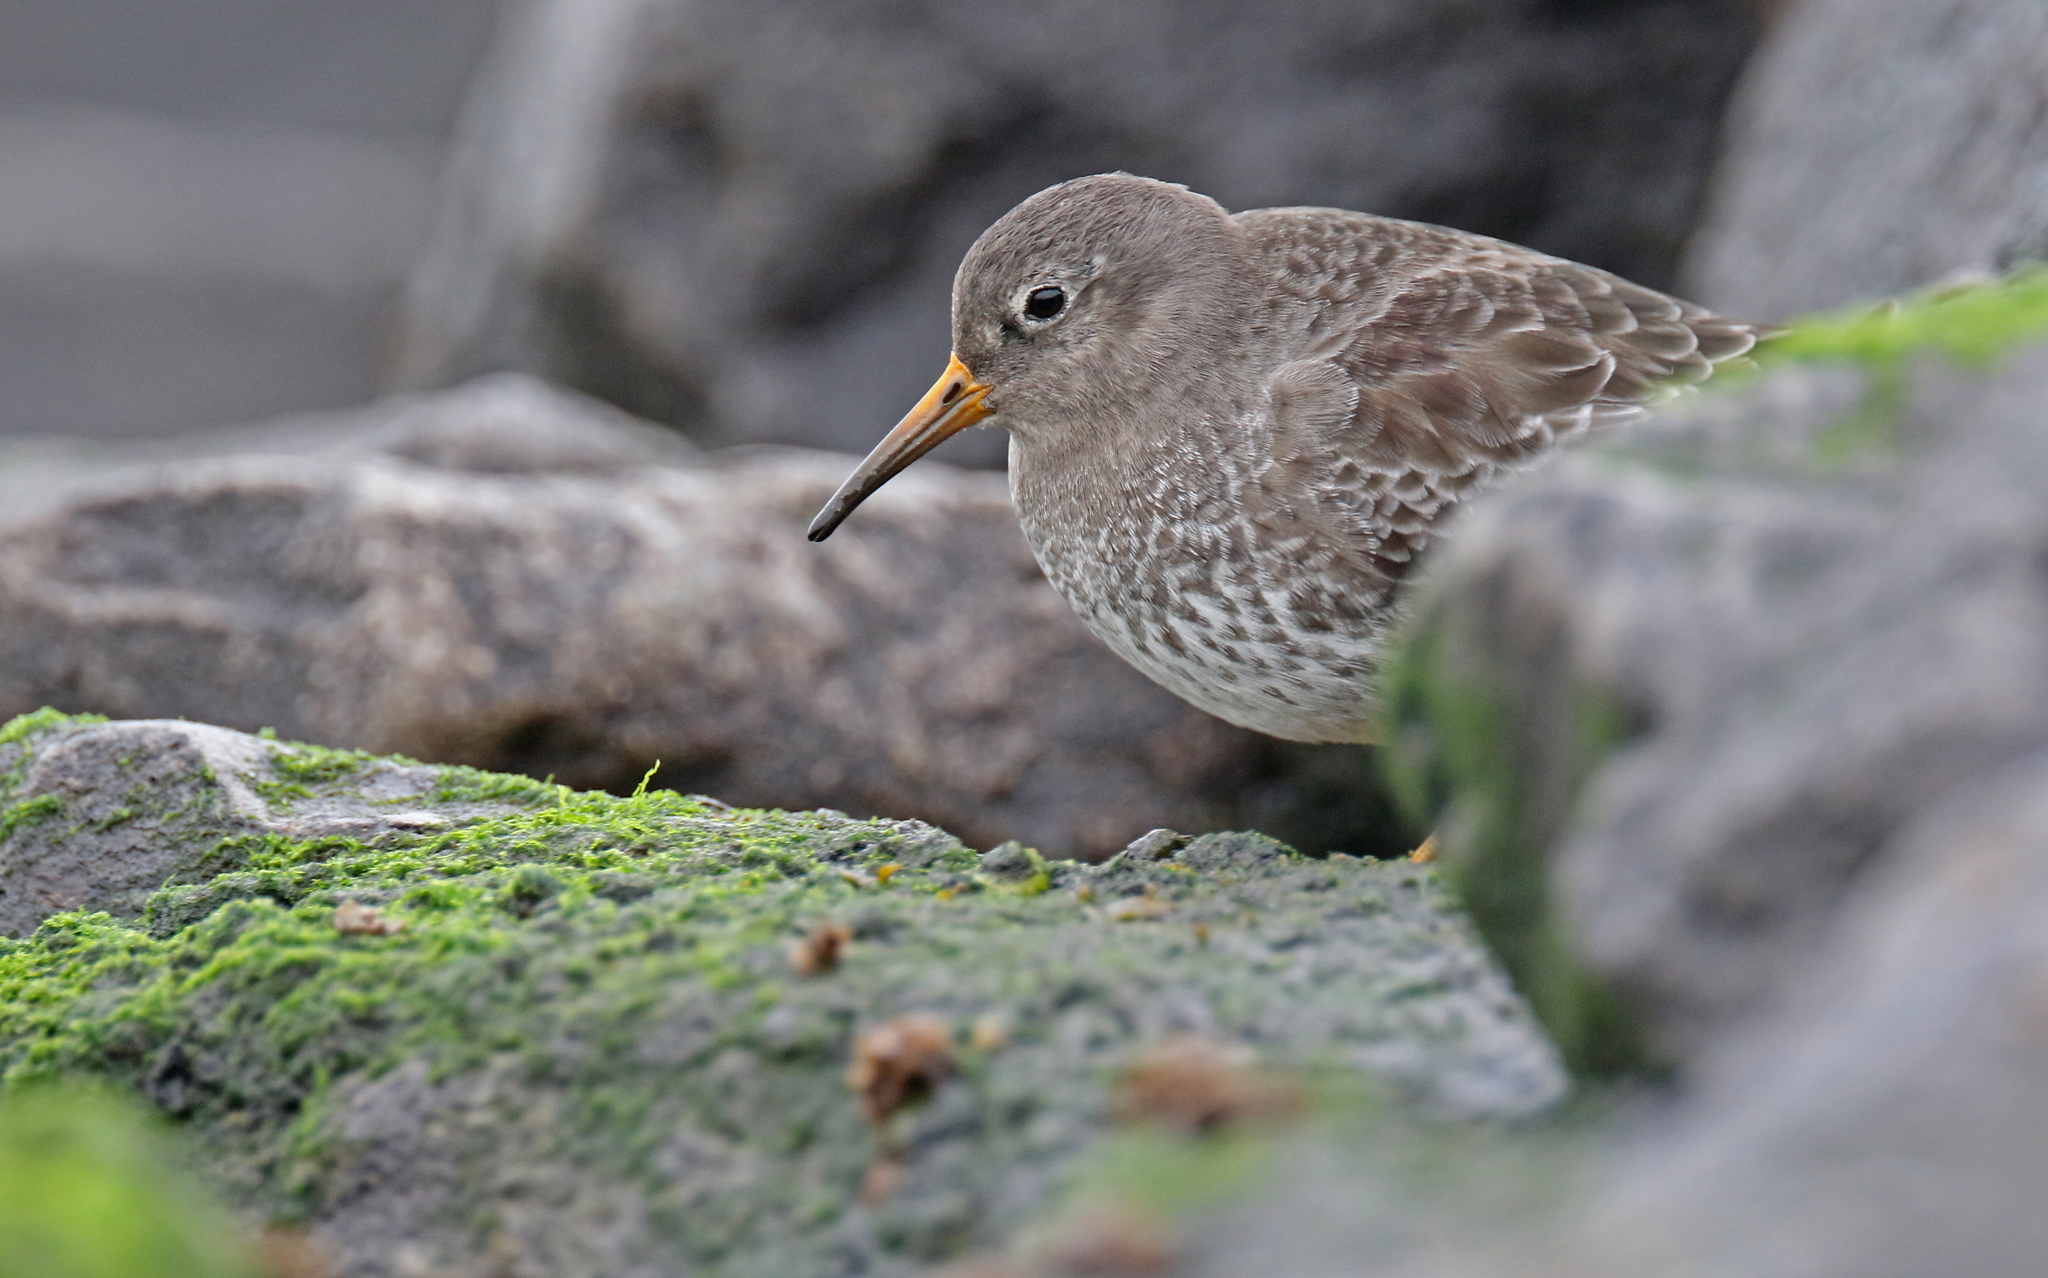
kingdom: Animalia
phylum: Chordata
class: Aves
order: Charadriiformes
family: Scolopacidae
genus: Calidris
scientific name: Calidris maritima
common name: Purple sandpiper
